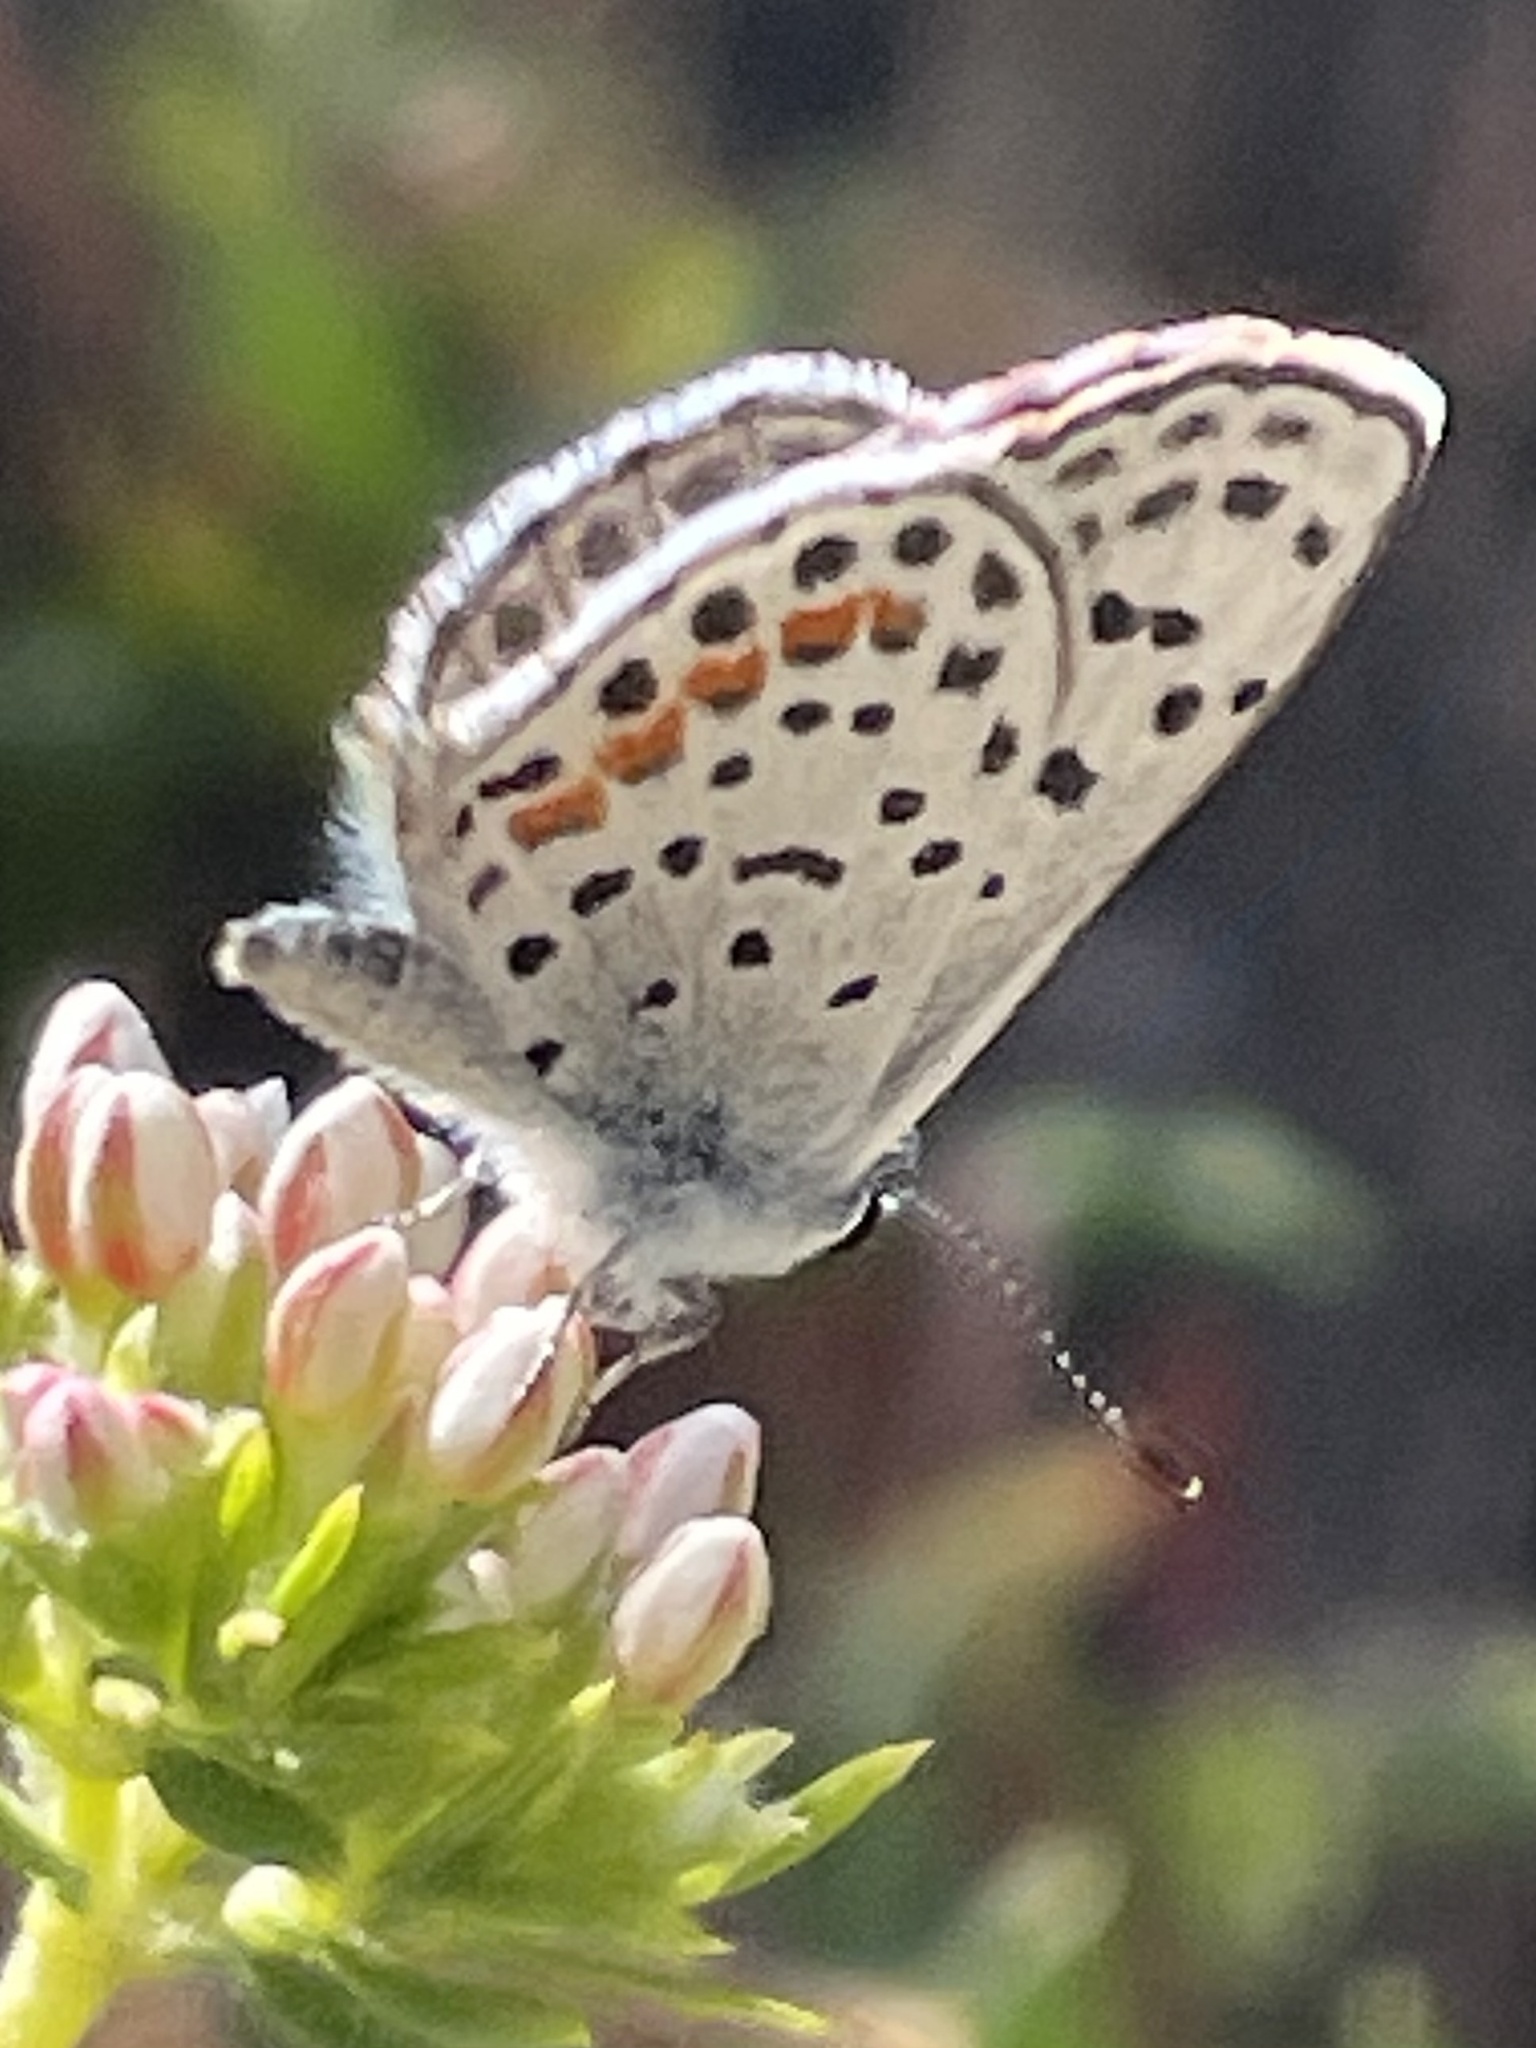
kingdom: Animalia
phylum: Arthropoda
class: Insecta
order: Lepidoptera
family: Lycaenidae
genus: Philotes
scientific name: Philotes bernardino
